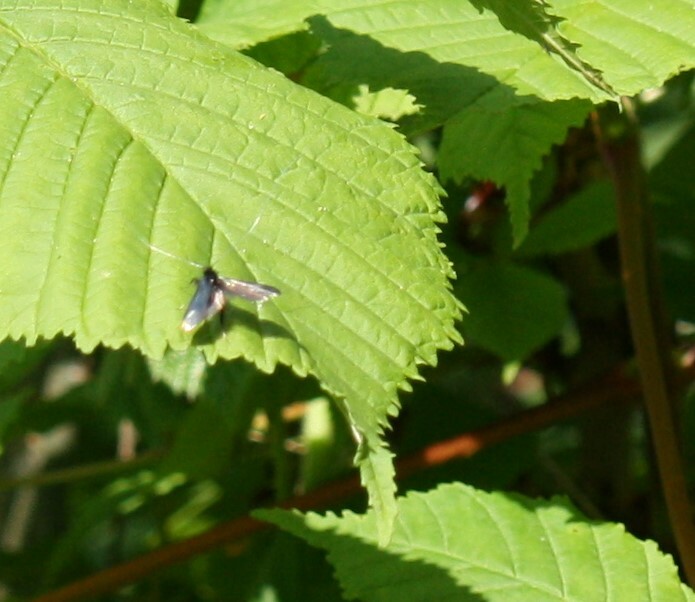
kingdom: Animalia
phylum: Arthropoda
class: Insecta
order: Lepidoptera
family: Adelidae
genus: Adela
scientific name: Adela viridella
